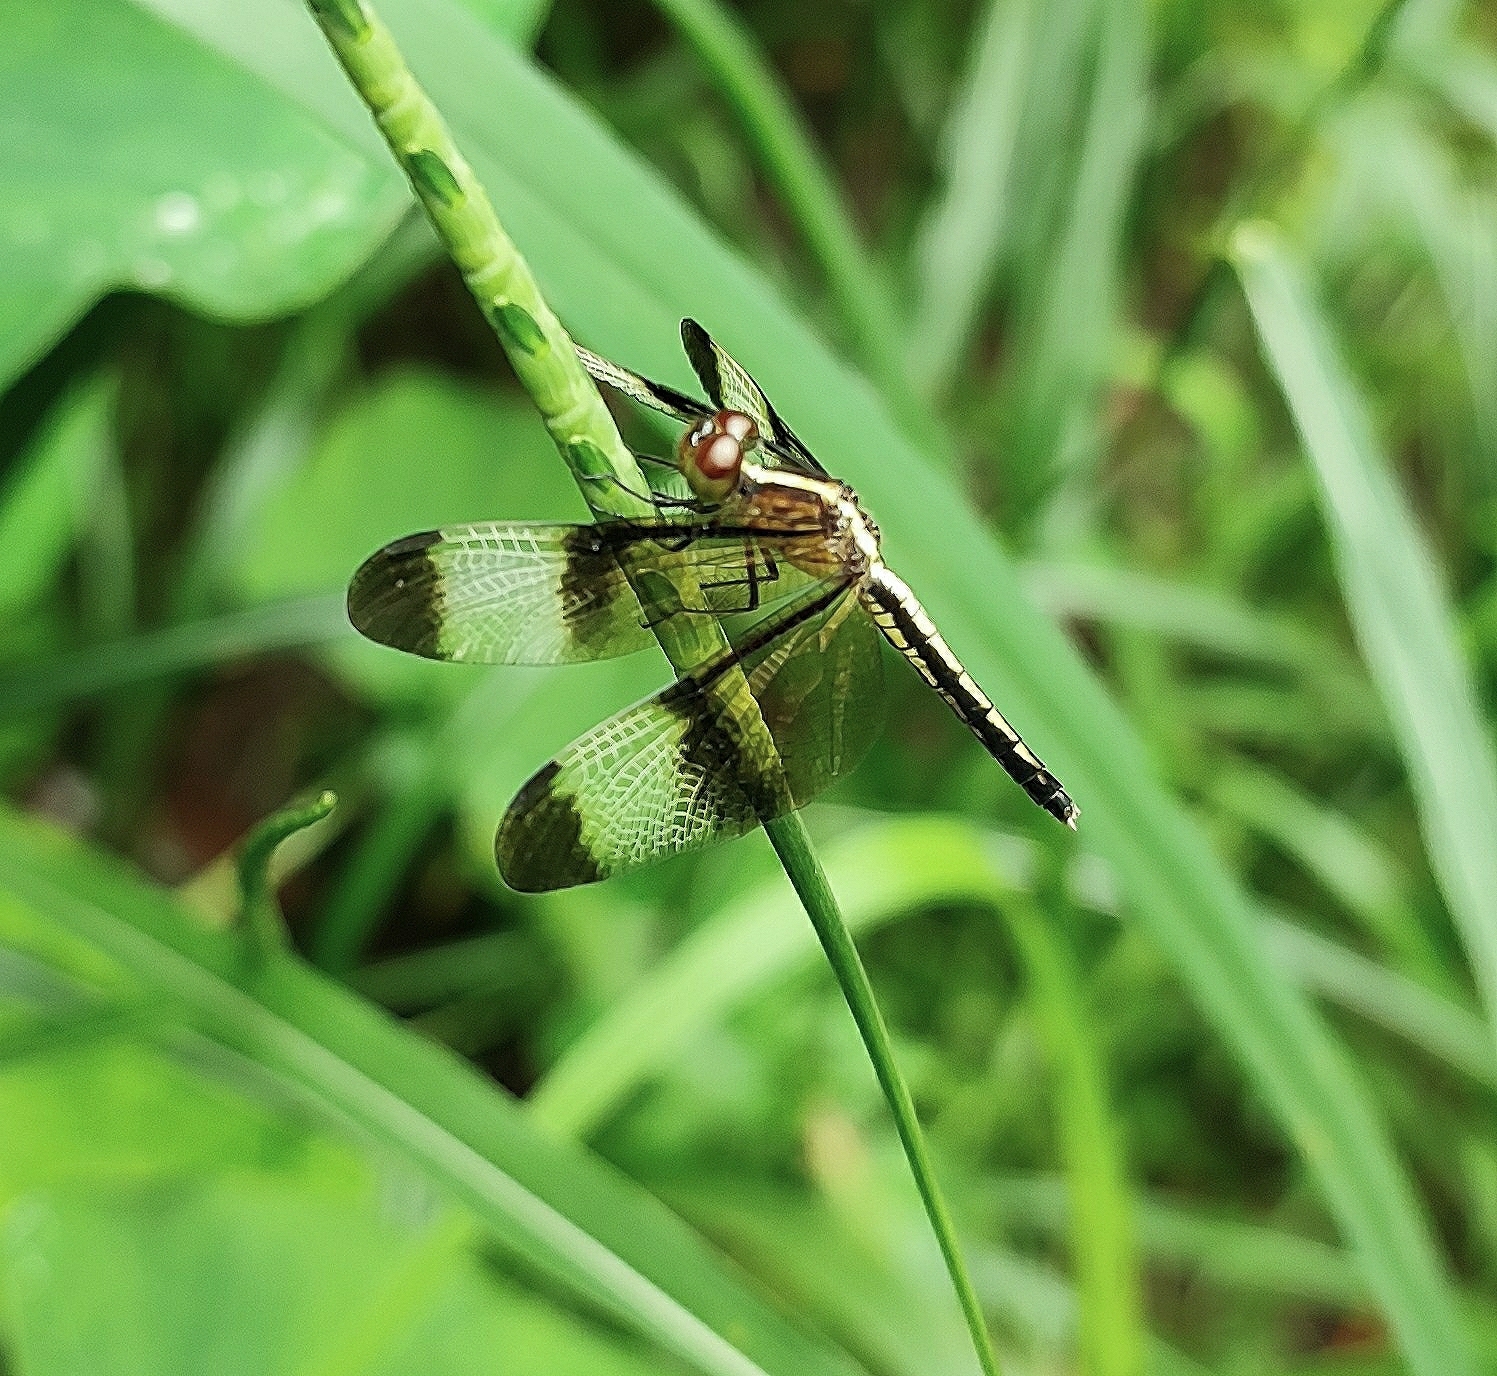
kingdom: Animalia
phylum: Arthropoda
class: Insecta
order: Odonata
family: Libellulidae
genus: Neurothemis
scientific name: Neurothemis tullia
